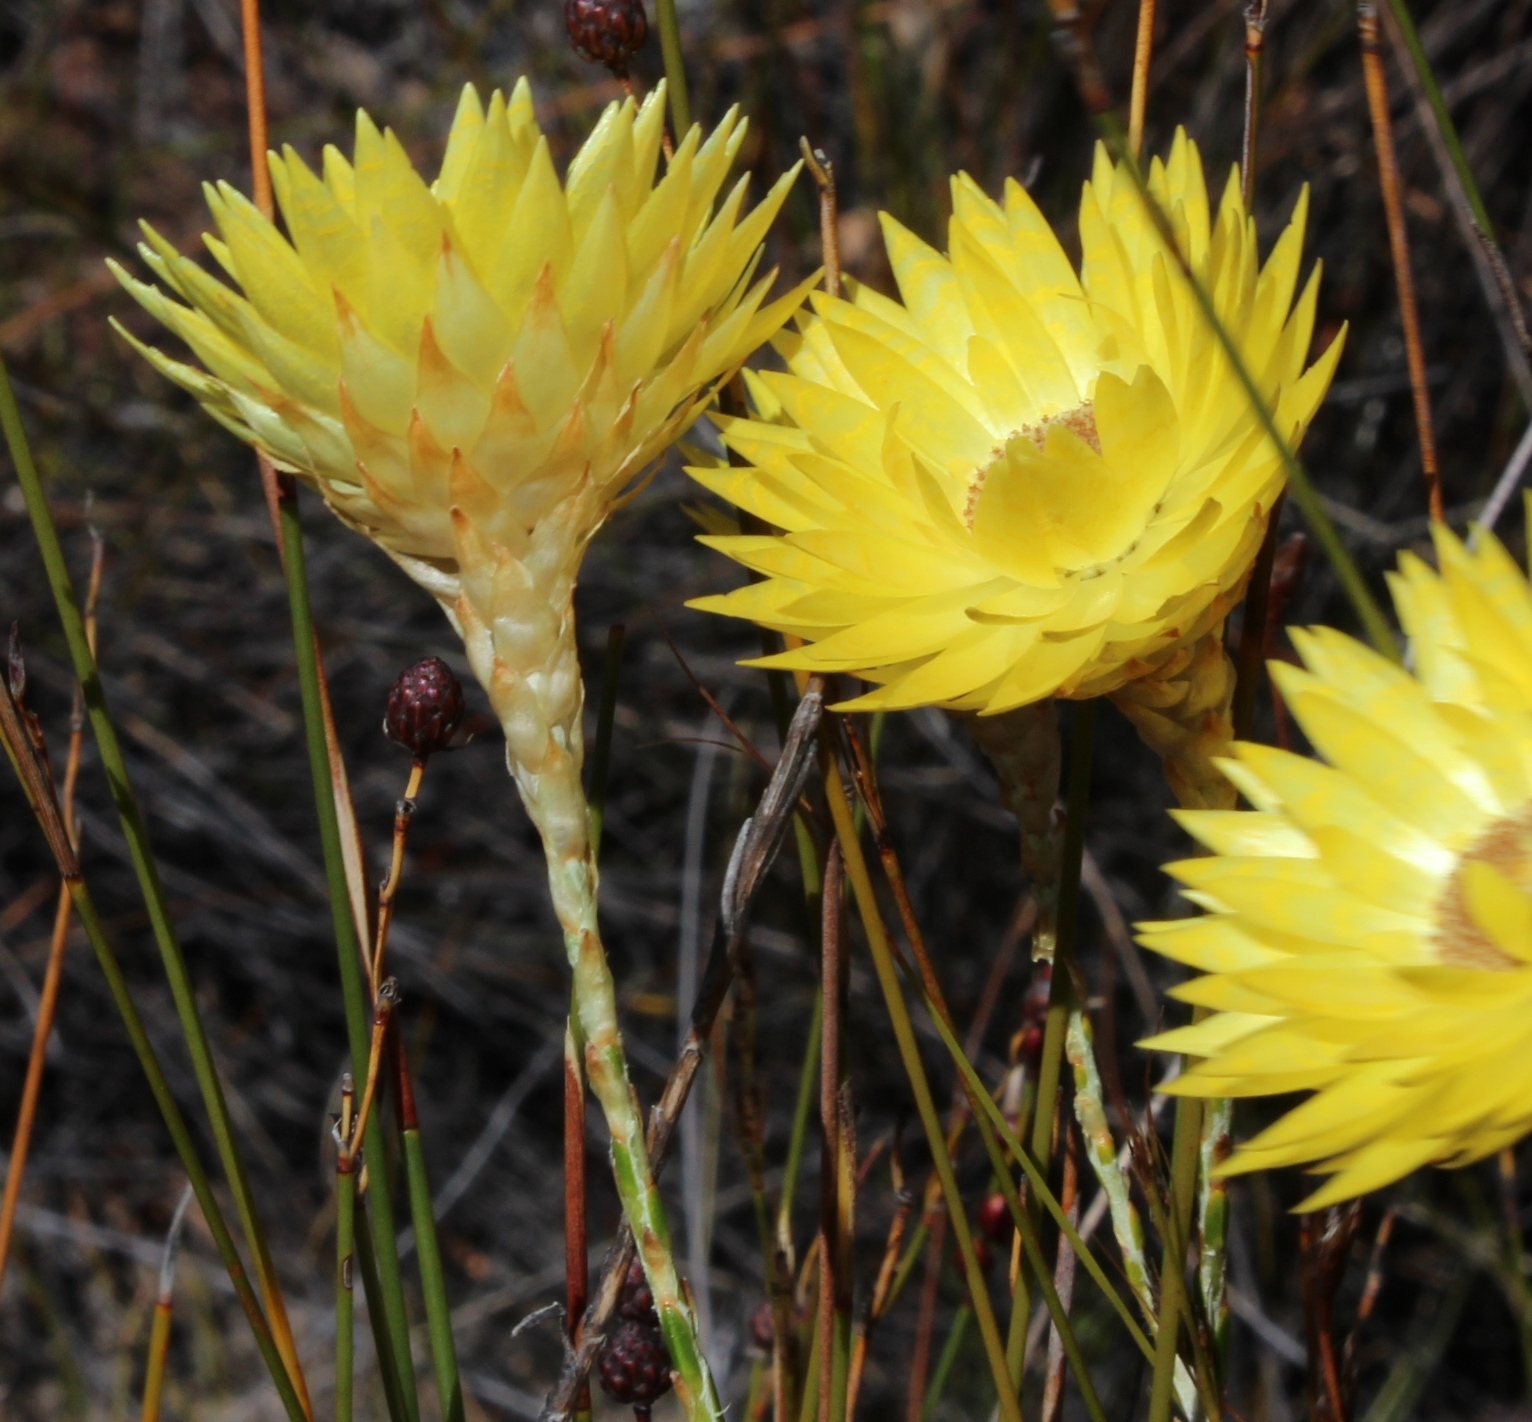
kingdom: Plantae
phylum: Tracheophyta
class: Magnoliopsida
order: Asterales
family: Asteraceae
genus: Edmondia
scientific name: Edmondia fasciculata
